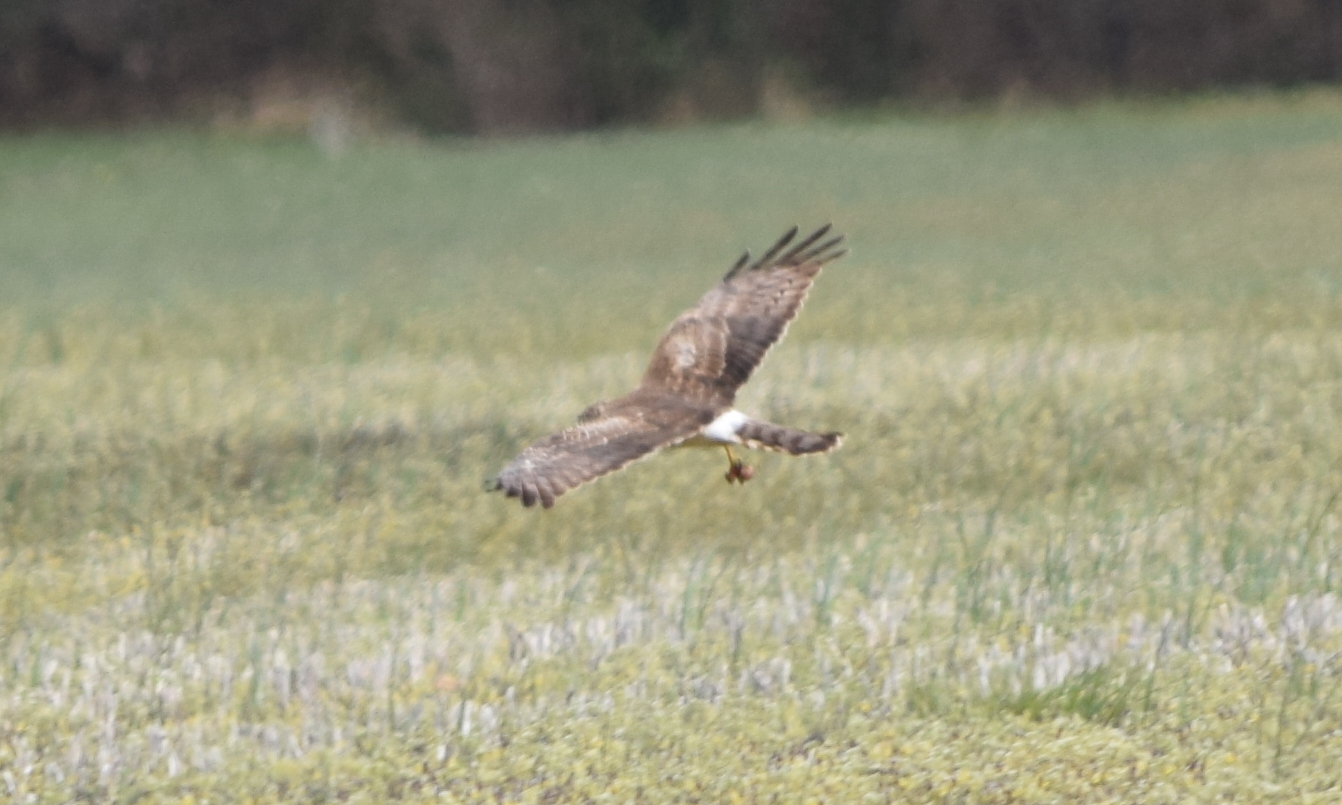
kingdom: Animalia
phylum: Chordata
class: Aves
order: Accipitriformes
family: Accipitridae
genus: Circus
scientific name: Circus cyaneus
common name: Hen harrier
